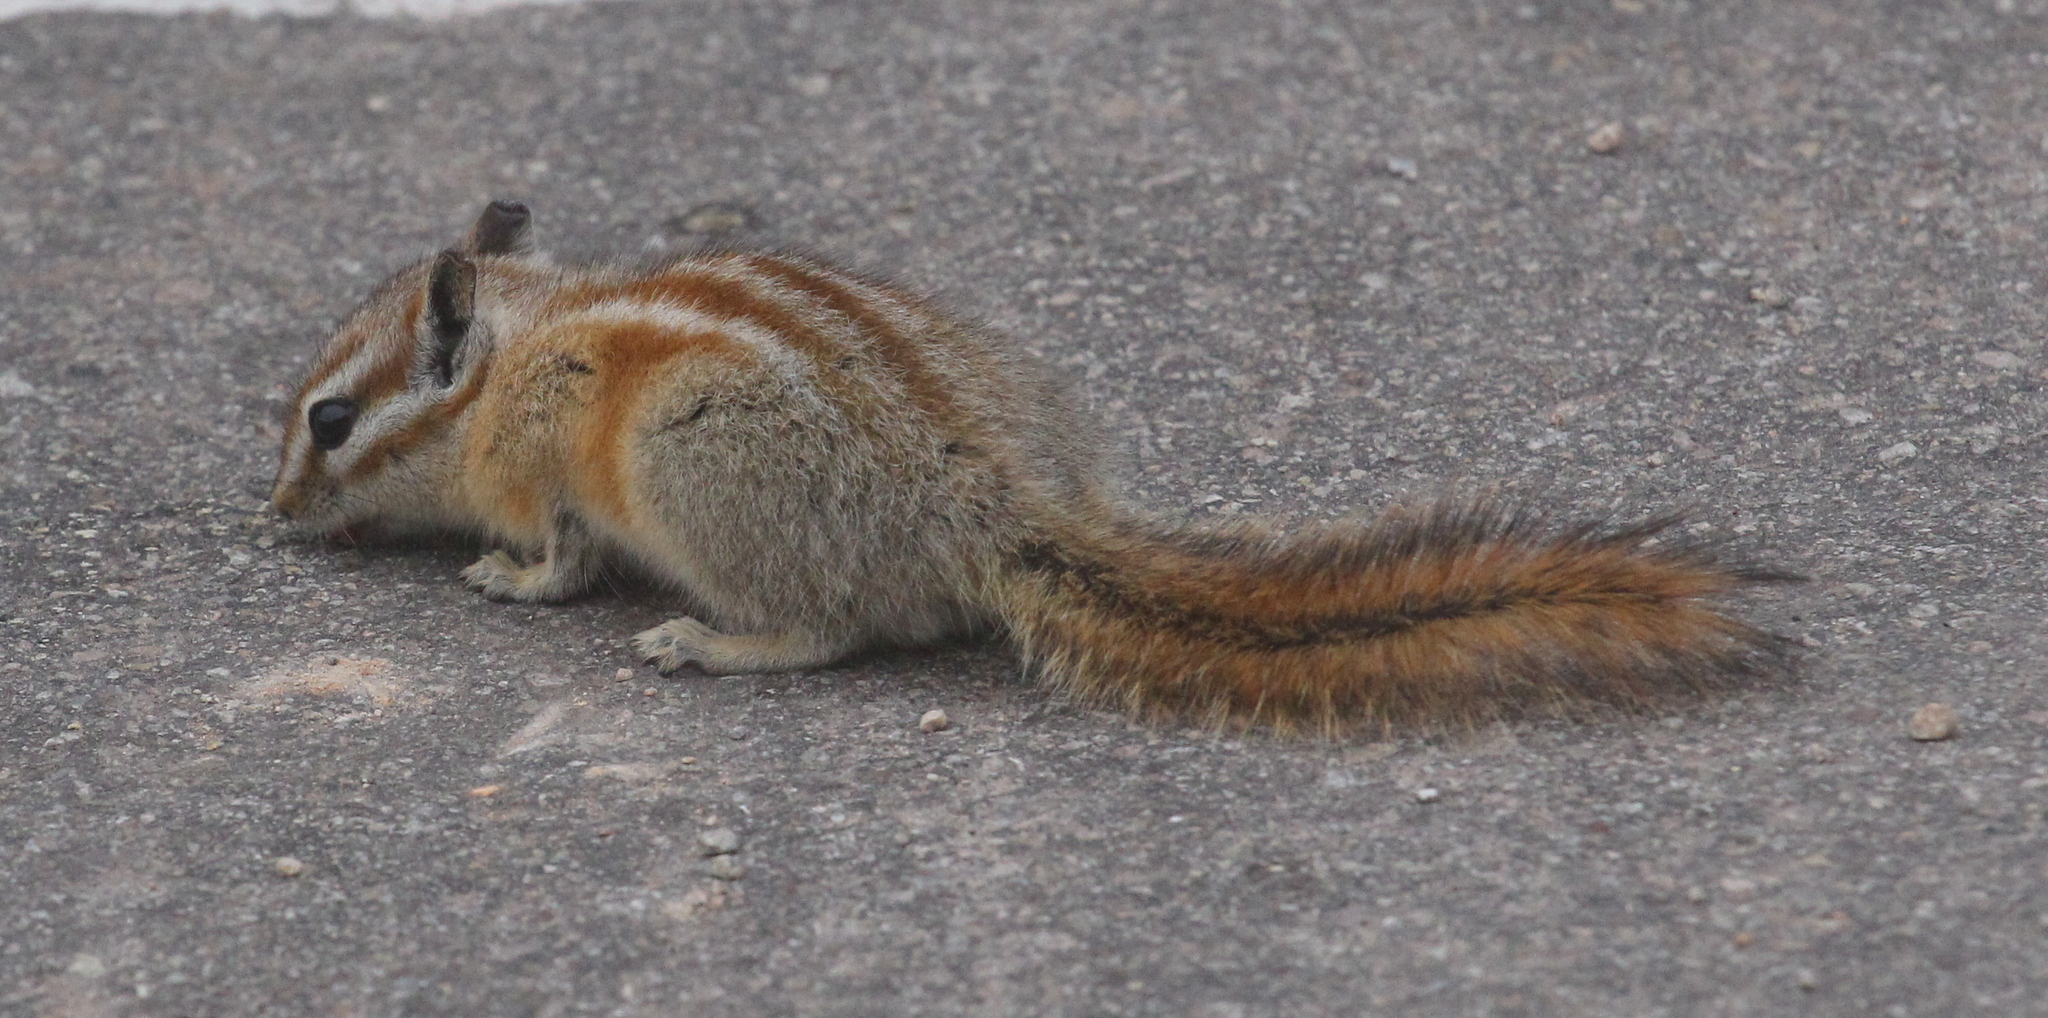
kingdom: Animalia
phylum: Chordata
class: Mammalia
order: Rodentia
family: Sciuridae
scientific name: Sciuridae
